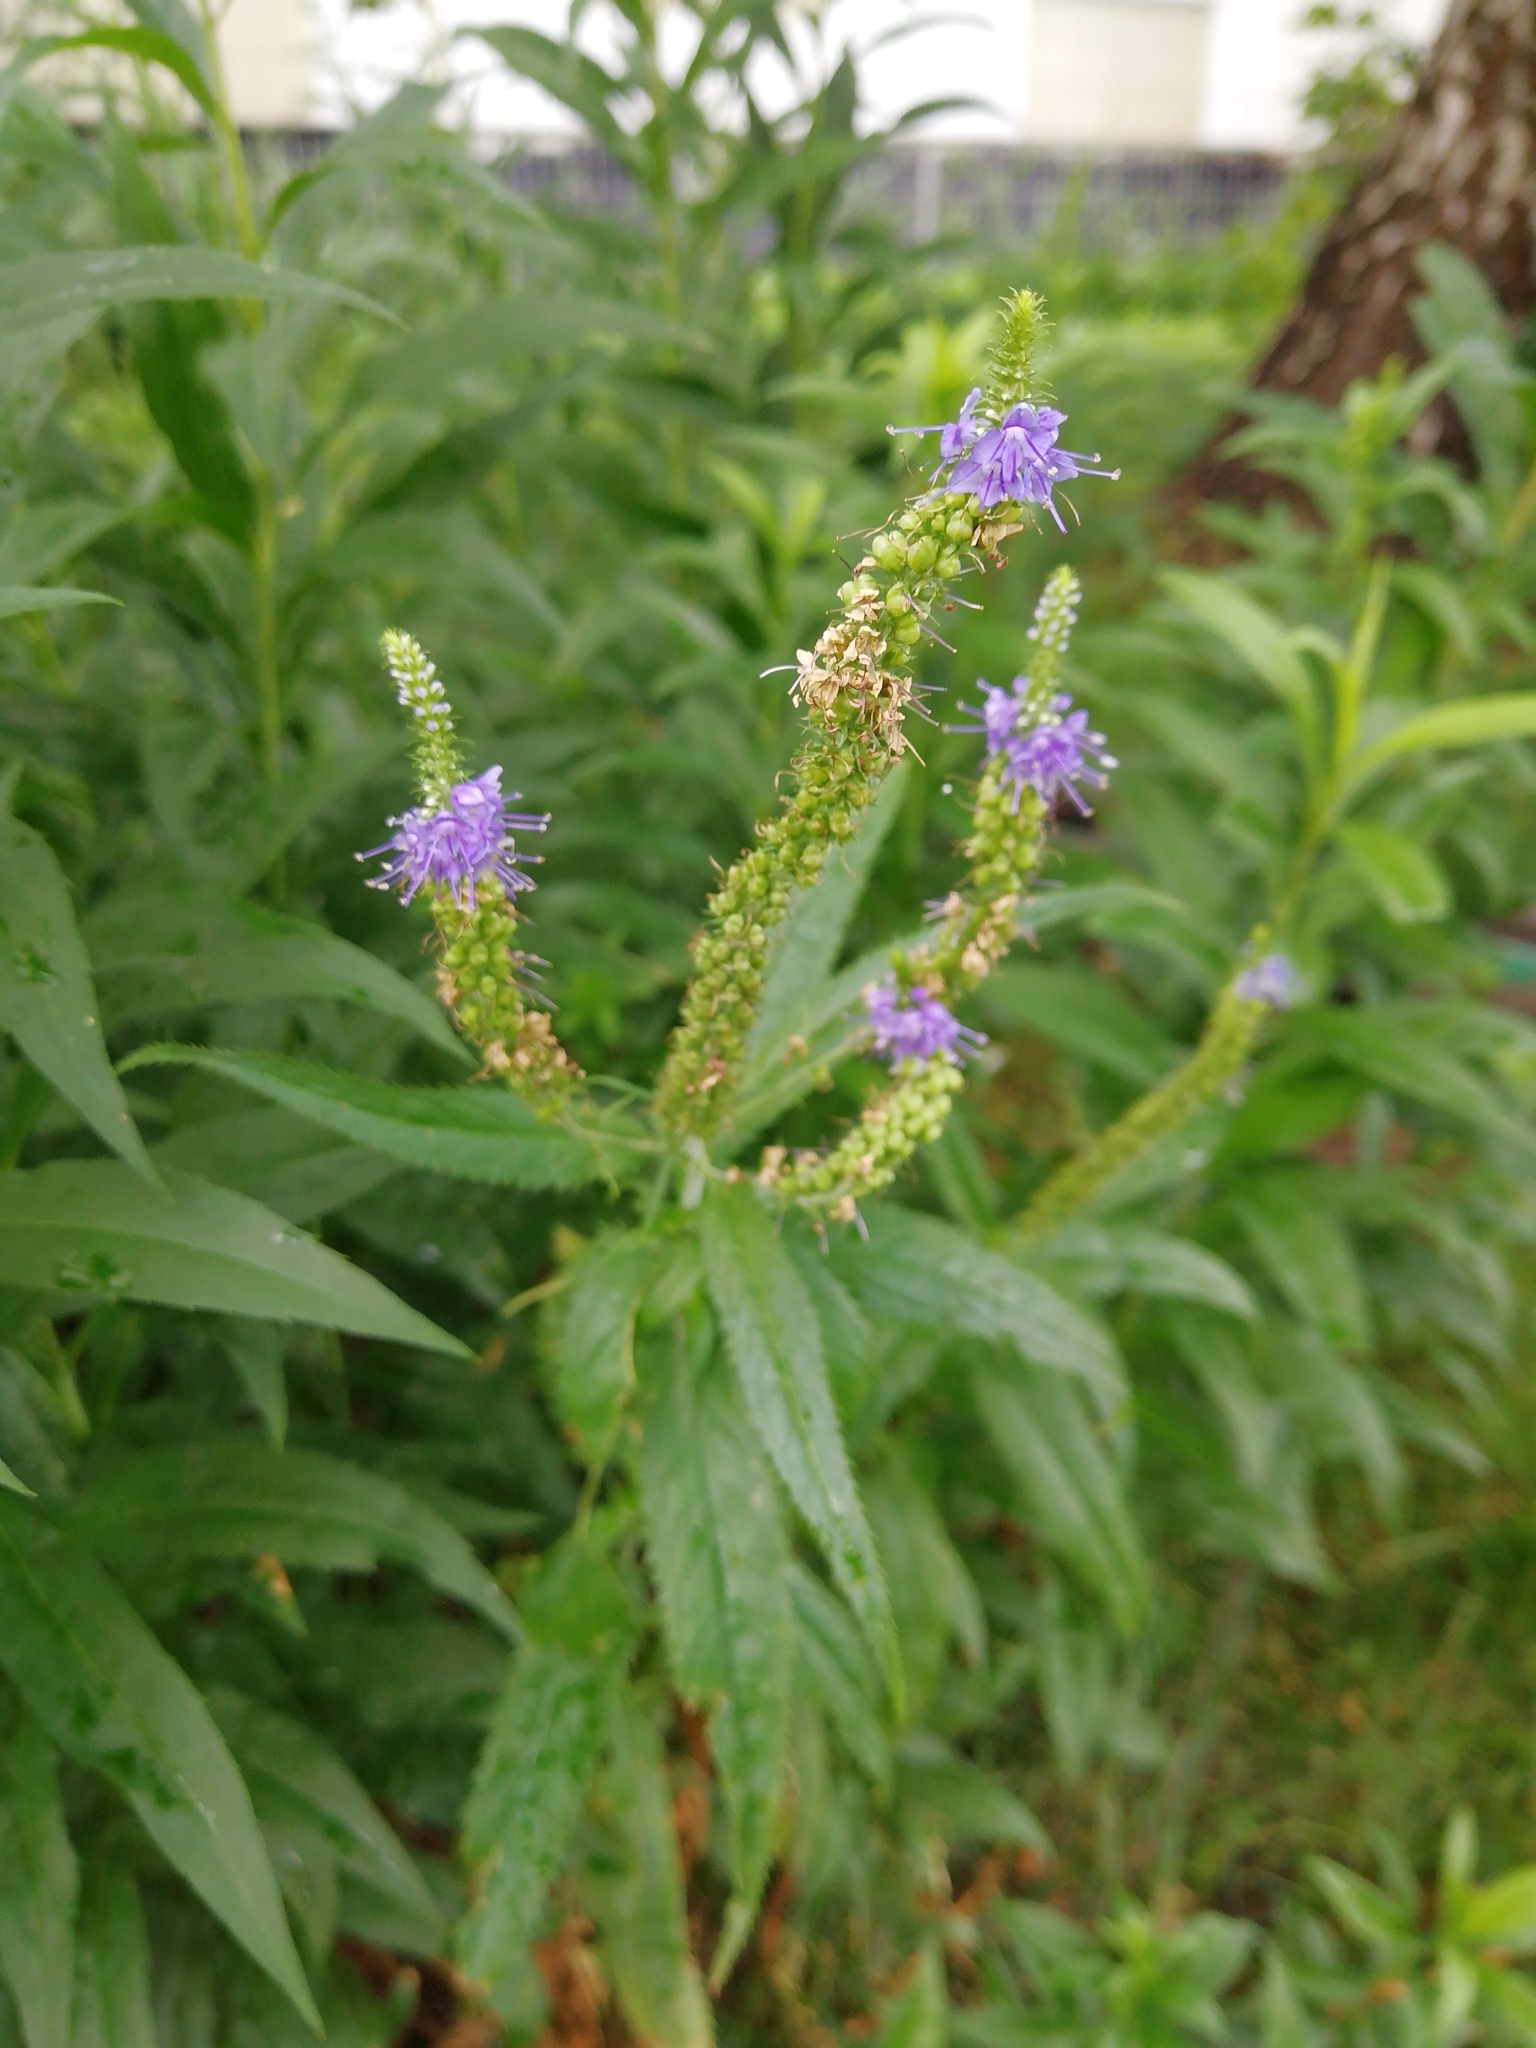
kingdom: Plantae
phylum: Tracheophyta
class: Magnoliopsida
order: Lamiales
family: Plantaginaceae
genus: Veronica
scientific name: Veronica longifolia
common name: Garden speedwell
